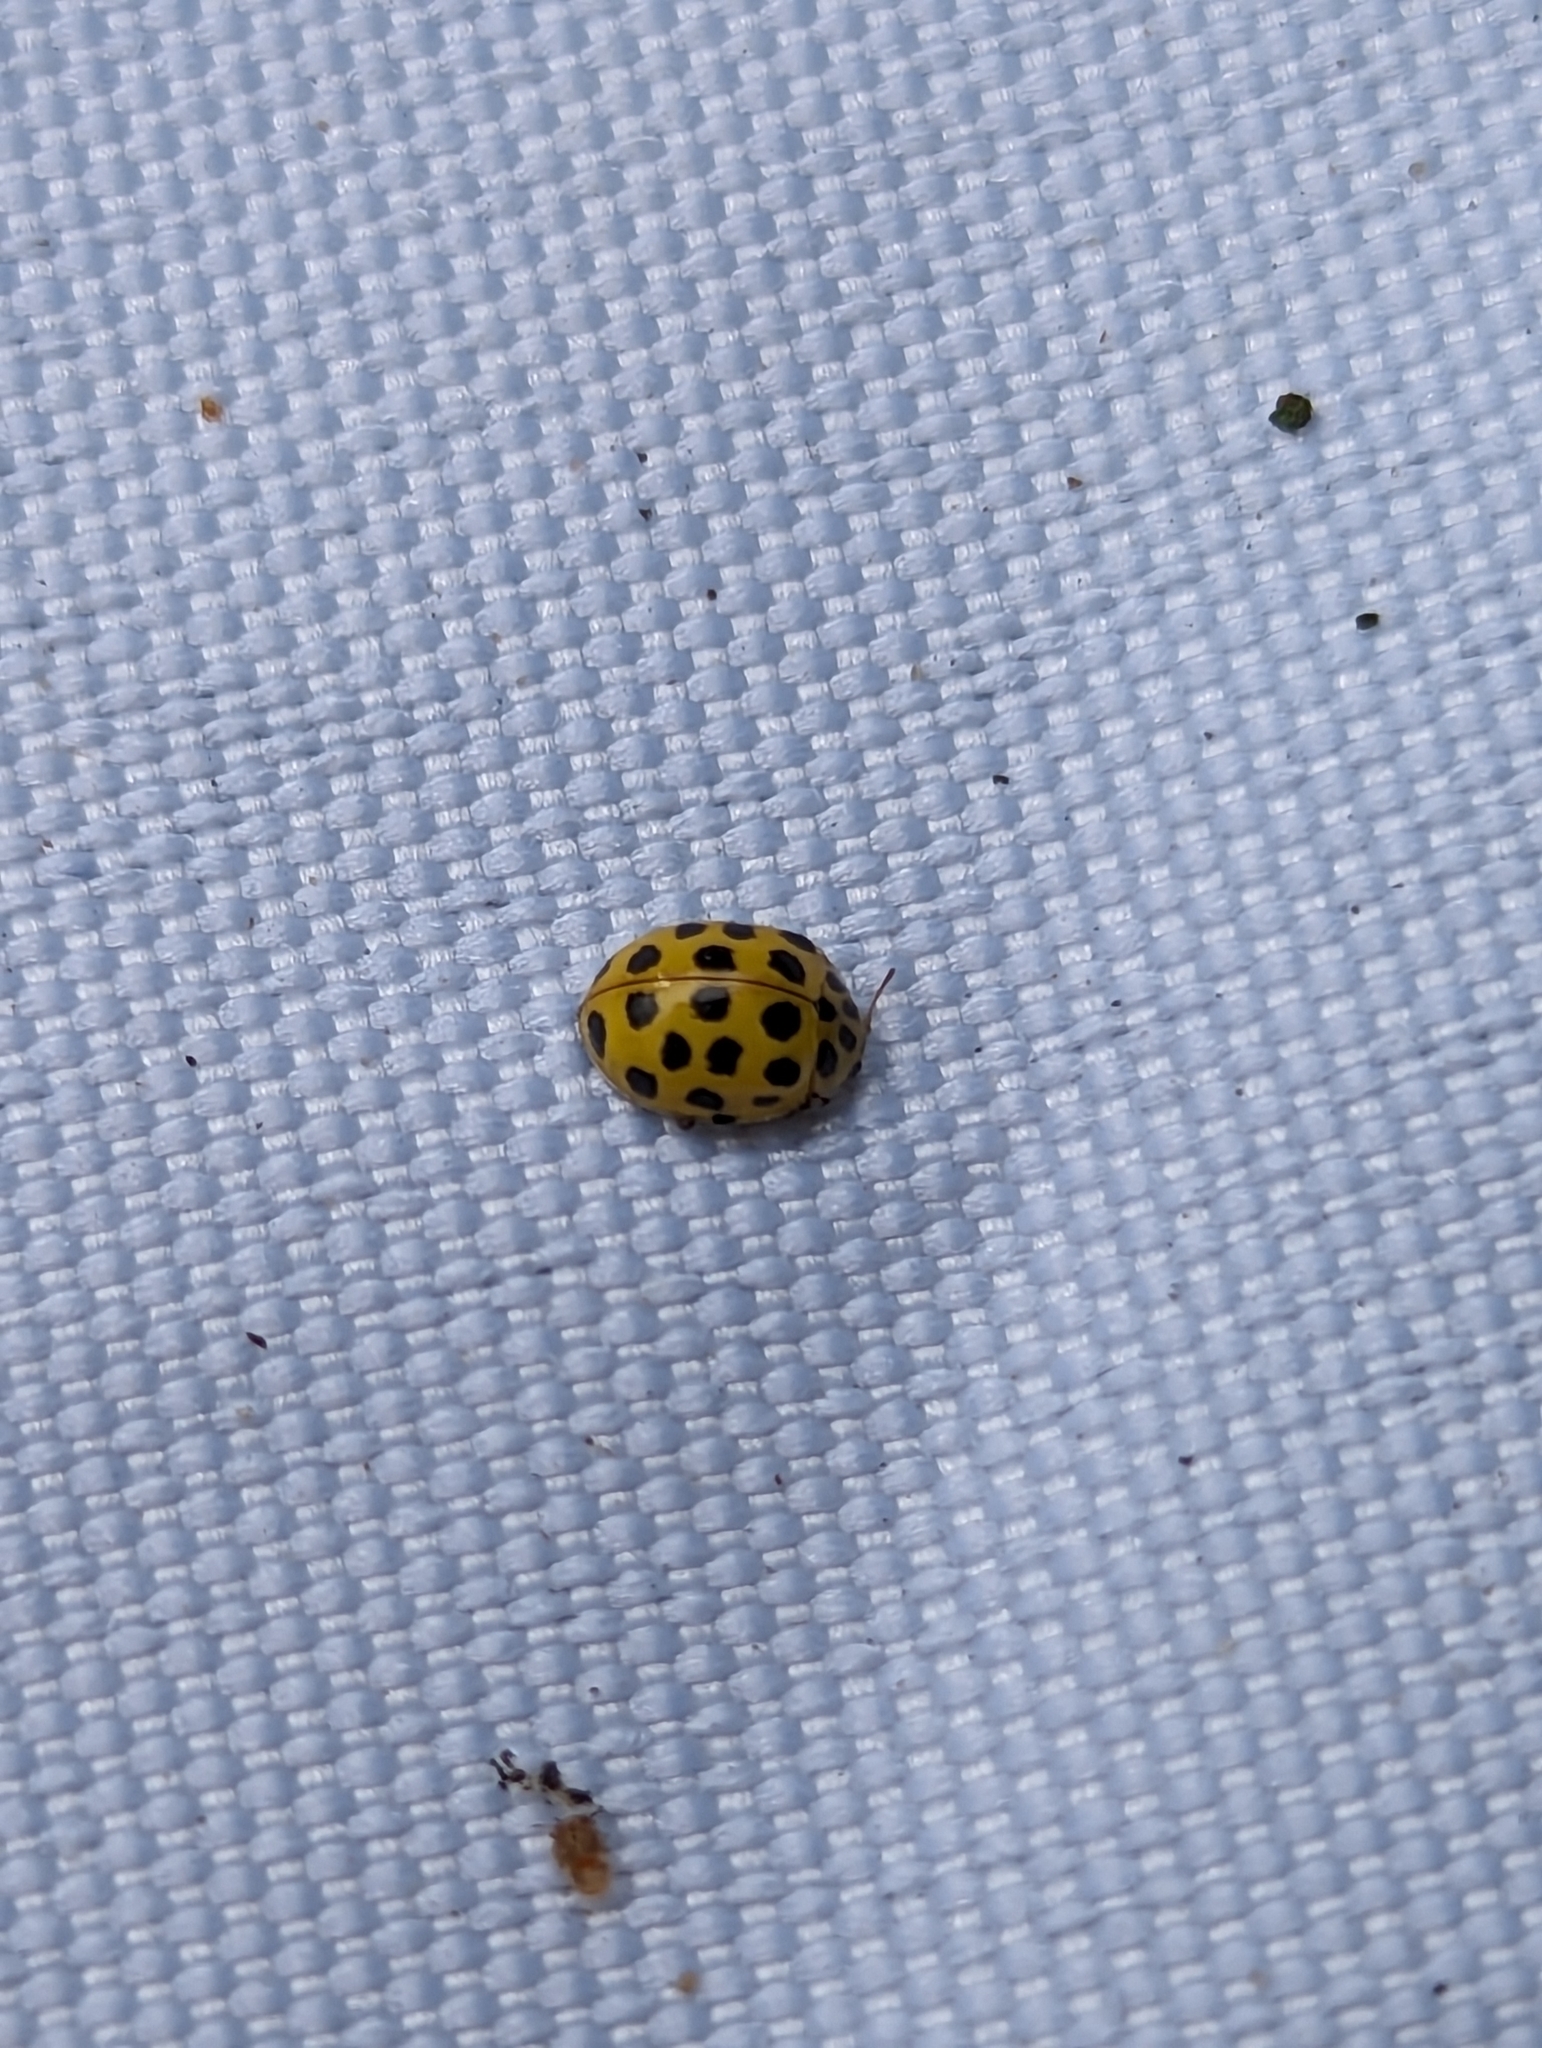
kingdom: Animalia
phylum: Arthropoda
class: Insecta
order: Coleoptera
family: Coccinellidae
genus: Psyllobora
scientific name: Psyllobora vigintiduopunctata
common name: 22-spot ladybird
